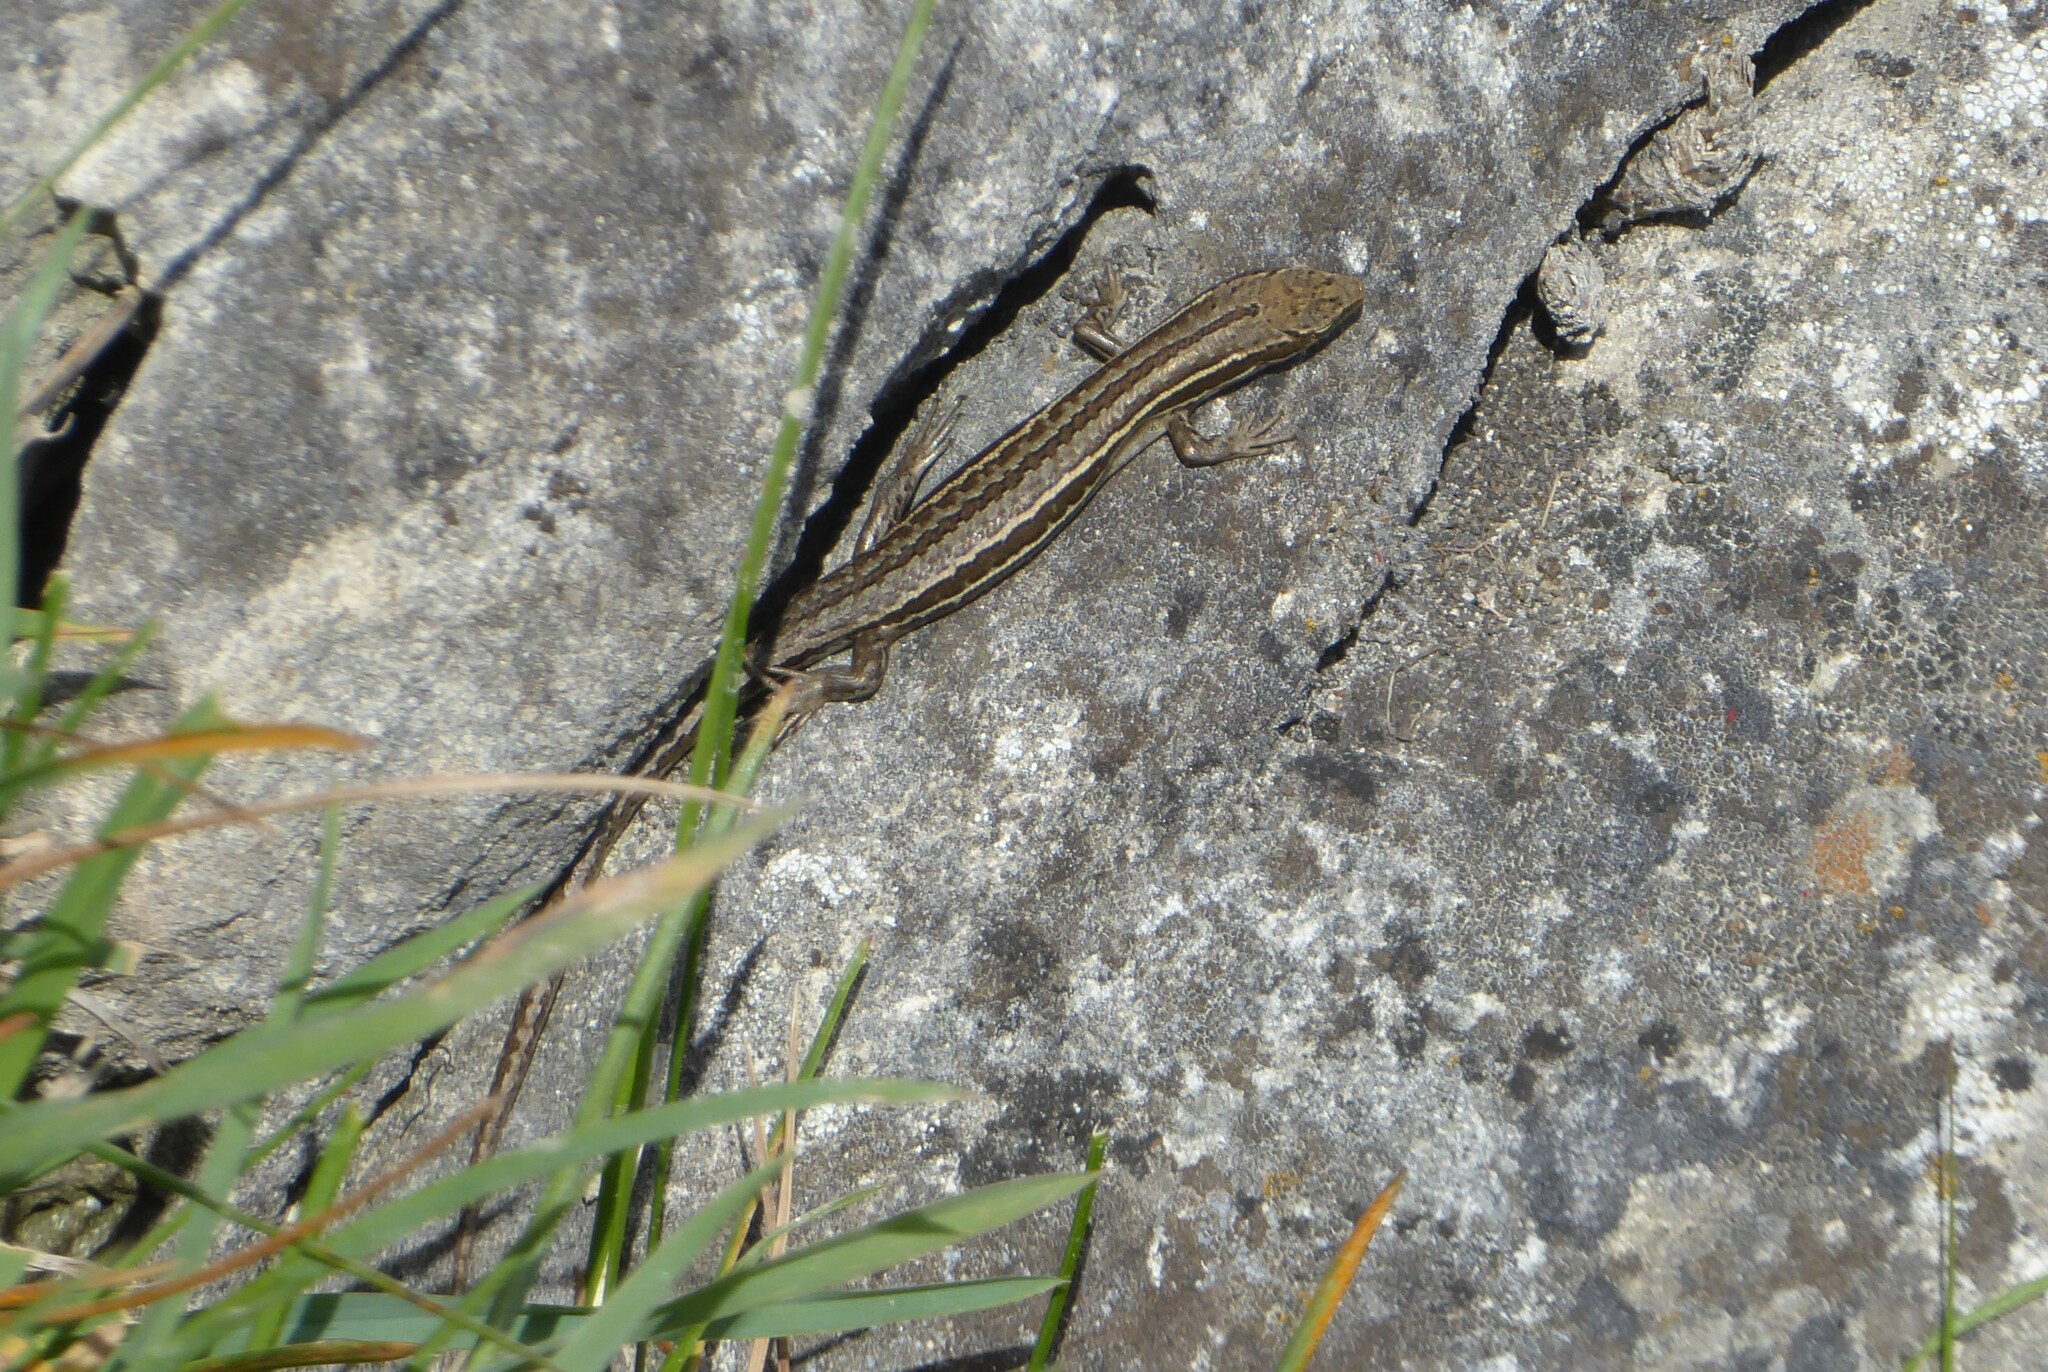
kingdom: Animalia
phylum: Chordata
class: Squamata
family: Scincidae
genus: Oligosoma
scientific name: Oligosoma maccanni
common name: Mccann’s skink
